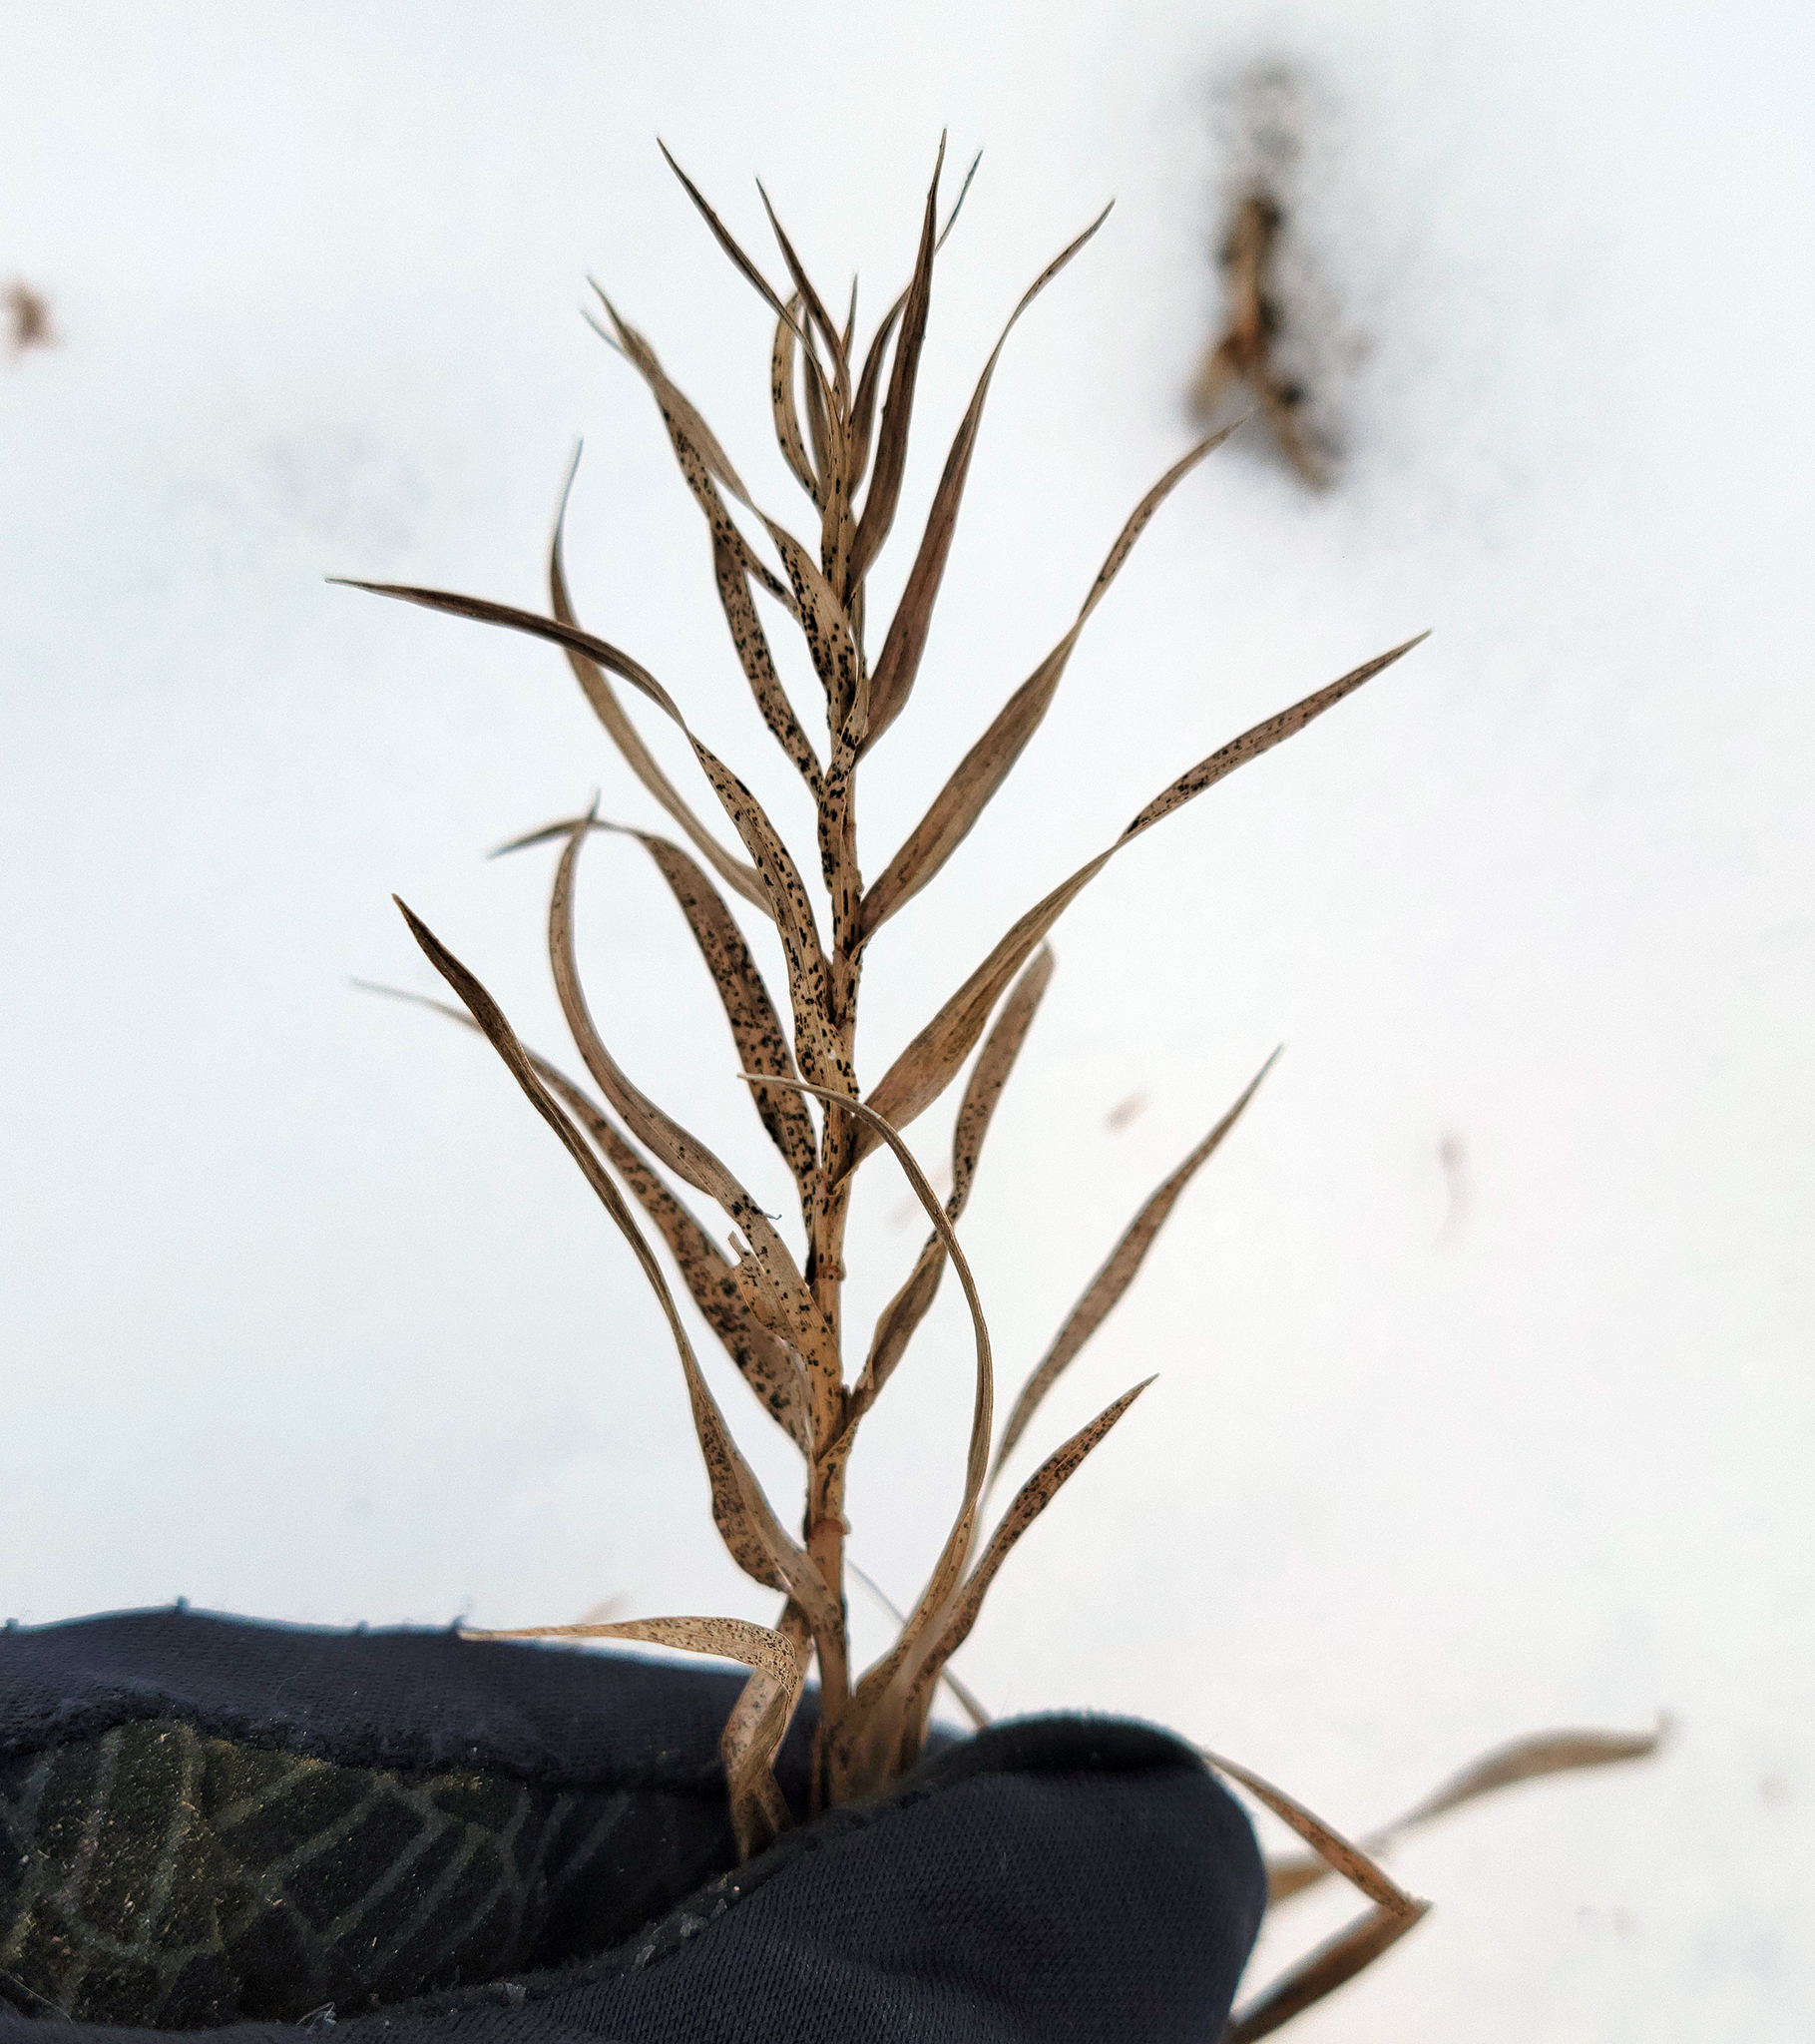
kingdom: Plantae
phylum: Tracheophyta
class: Liliopsida
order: Poales
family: Cyperaceae
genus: Dulichium
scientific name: Dulichium arundinaceum
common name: Three-way sedge
